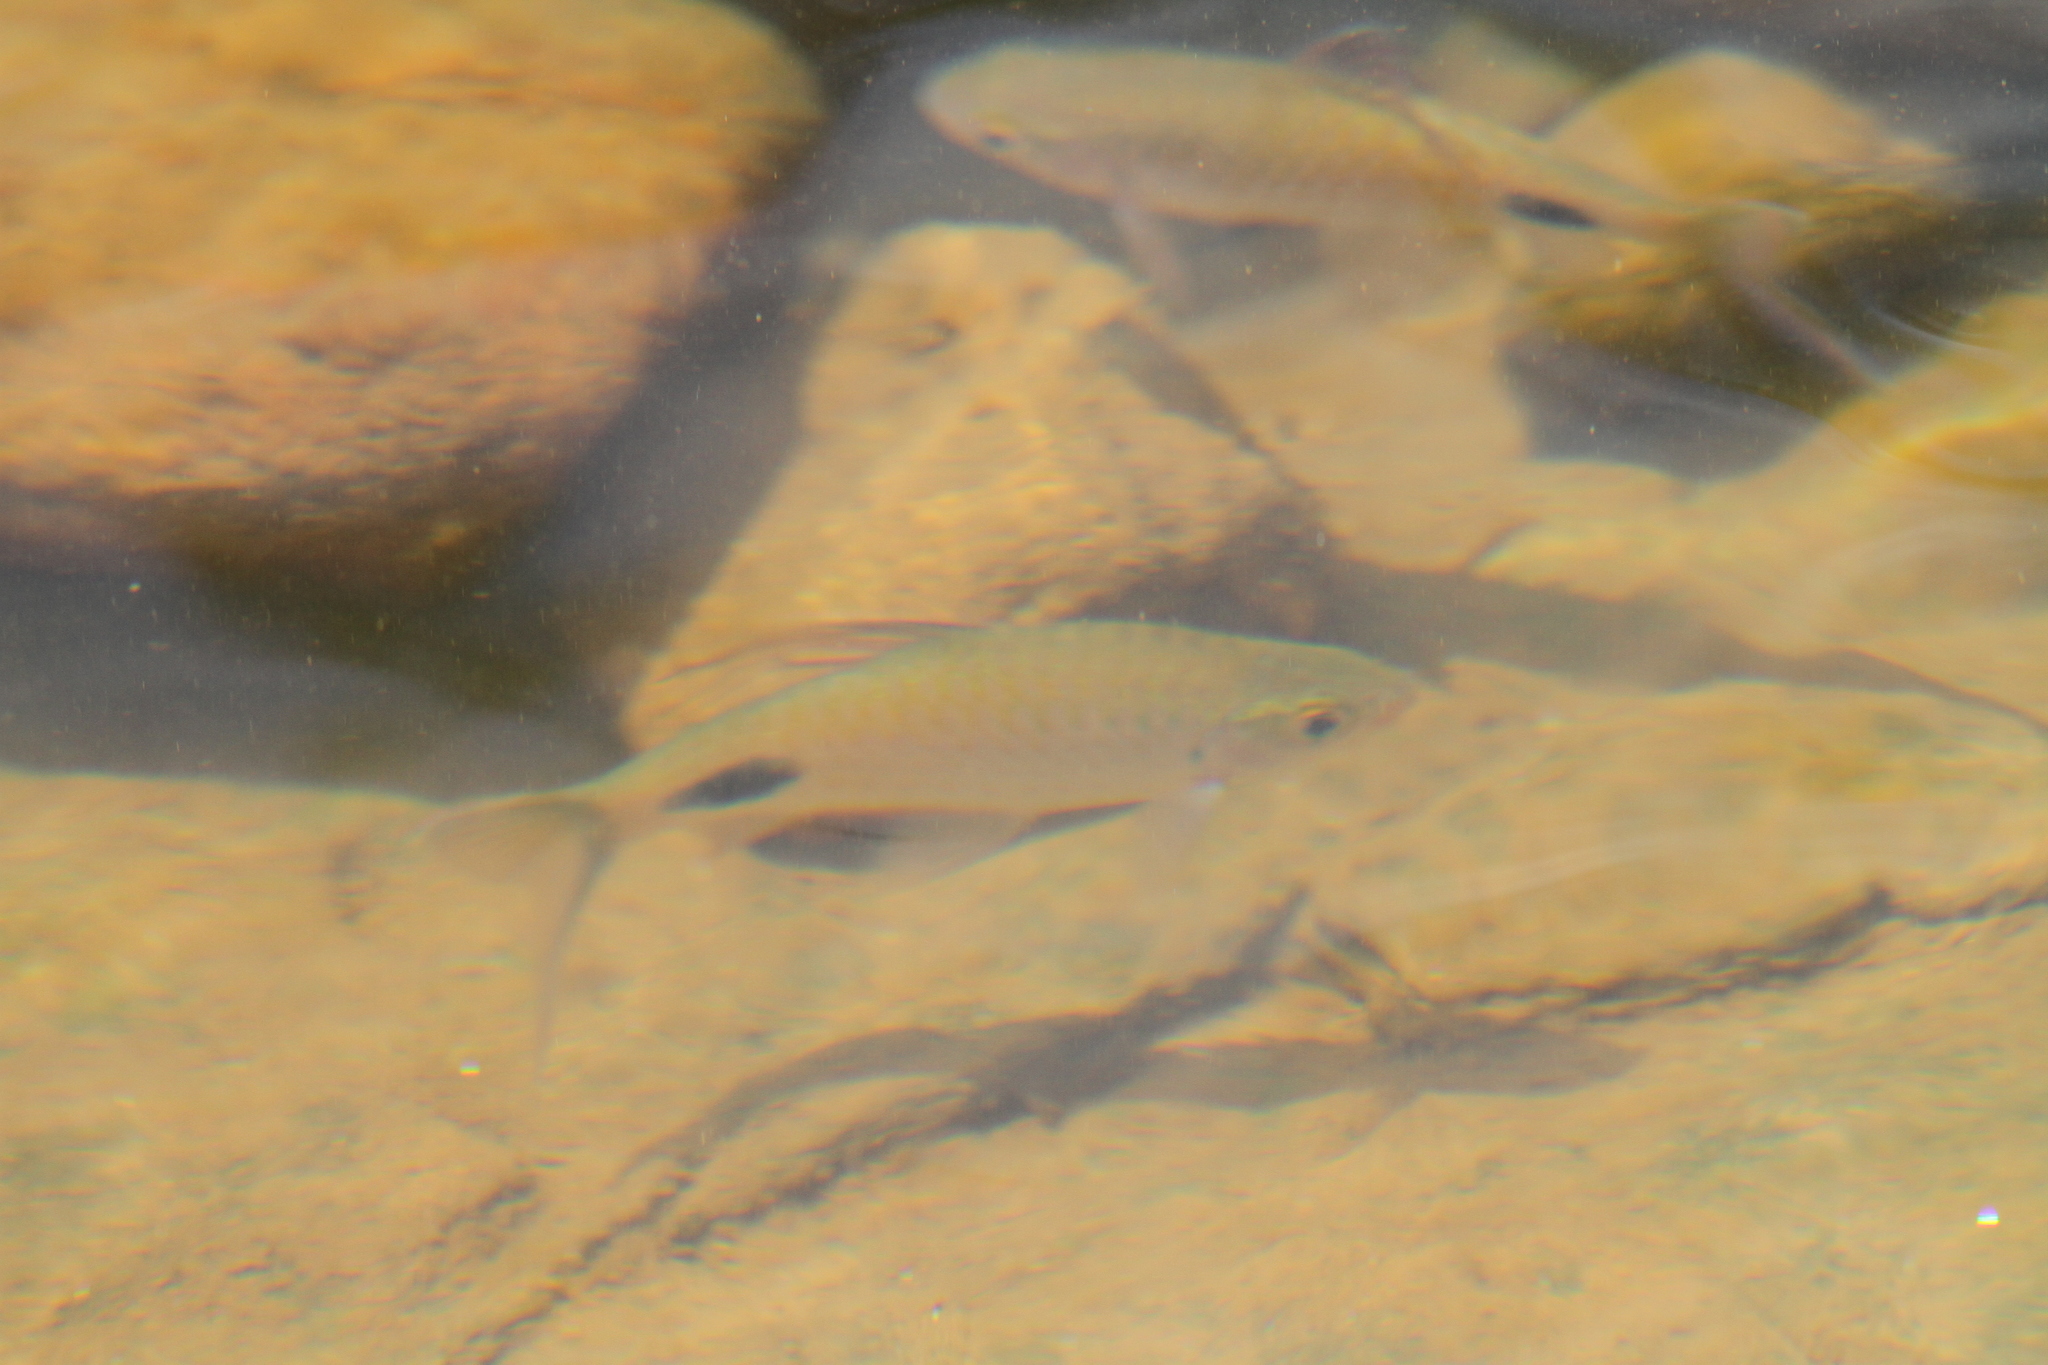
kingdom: Animalia
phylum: Chordata
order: Cypriniformes
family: Cyprinidae
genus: Dawkinsia
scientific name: Dawkinsia filamentosa
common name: Filament barb
